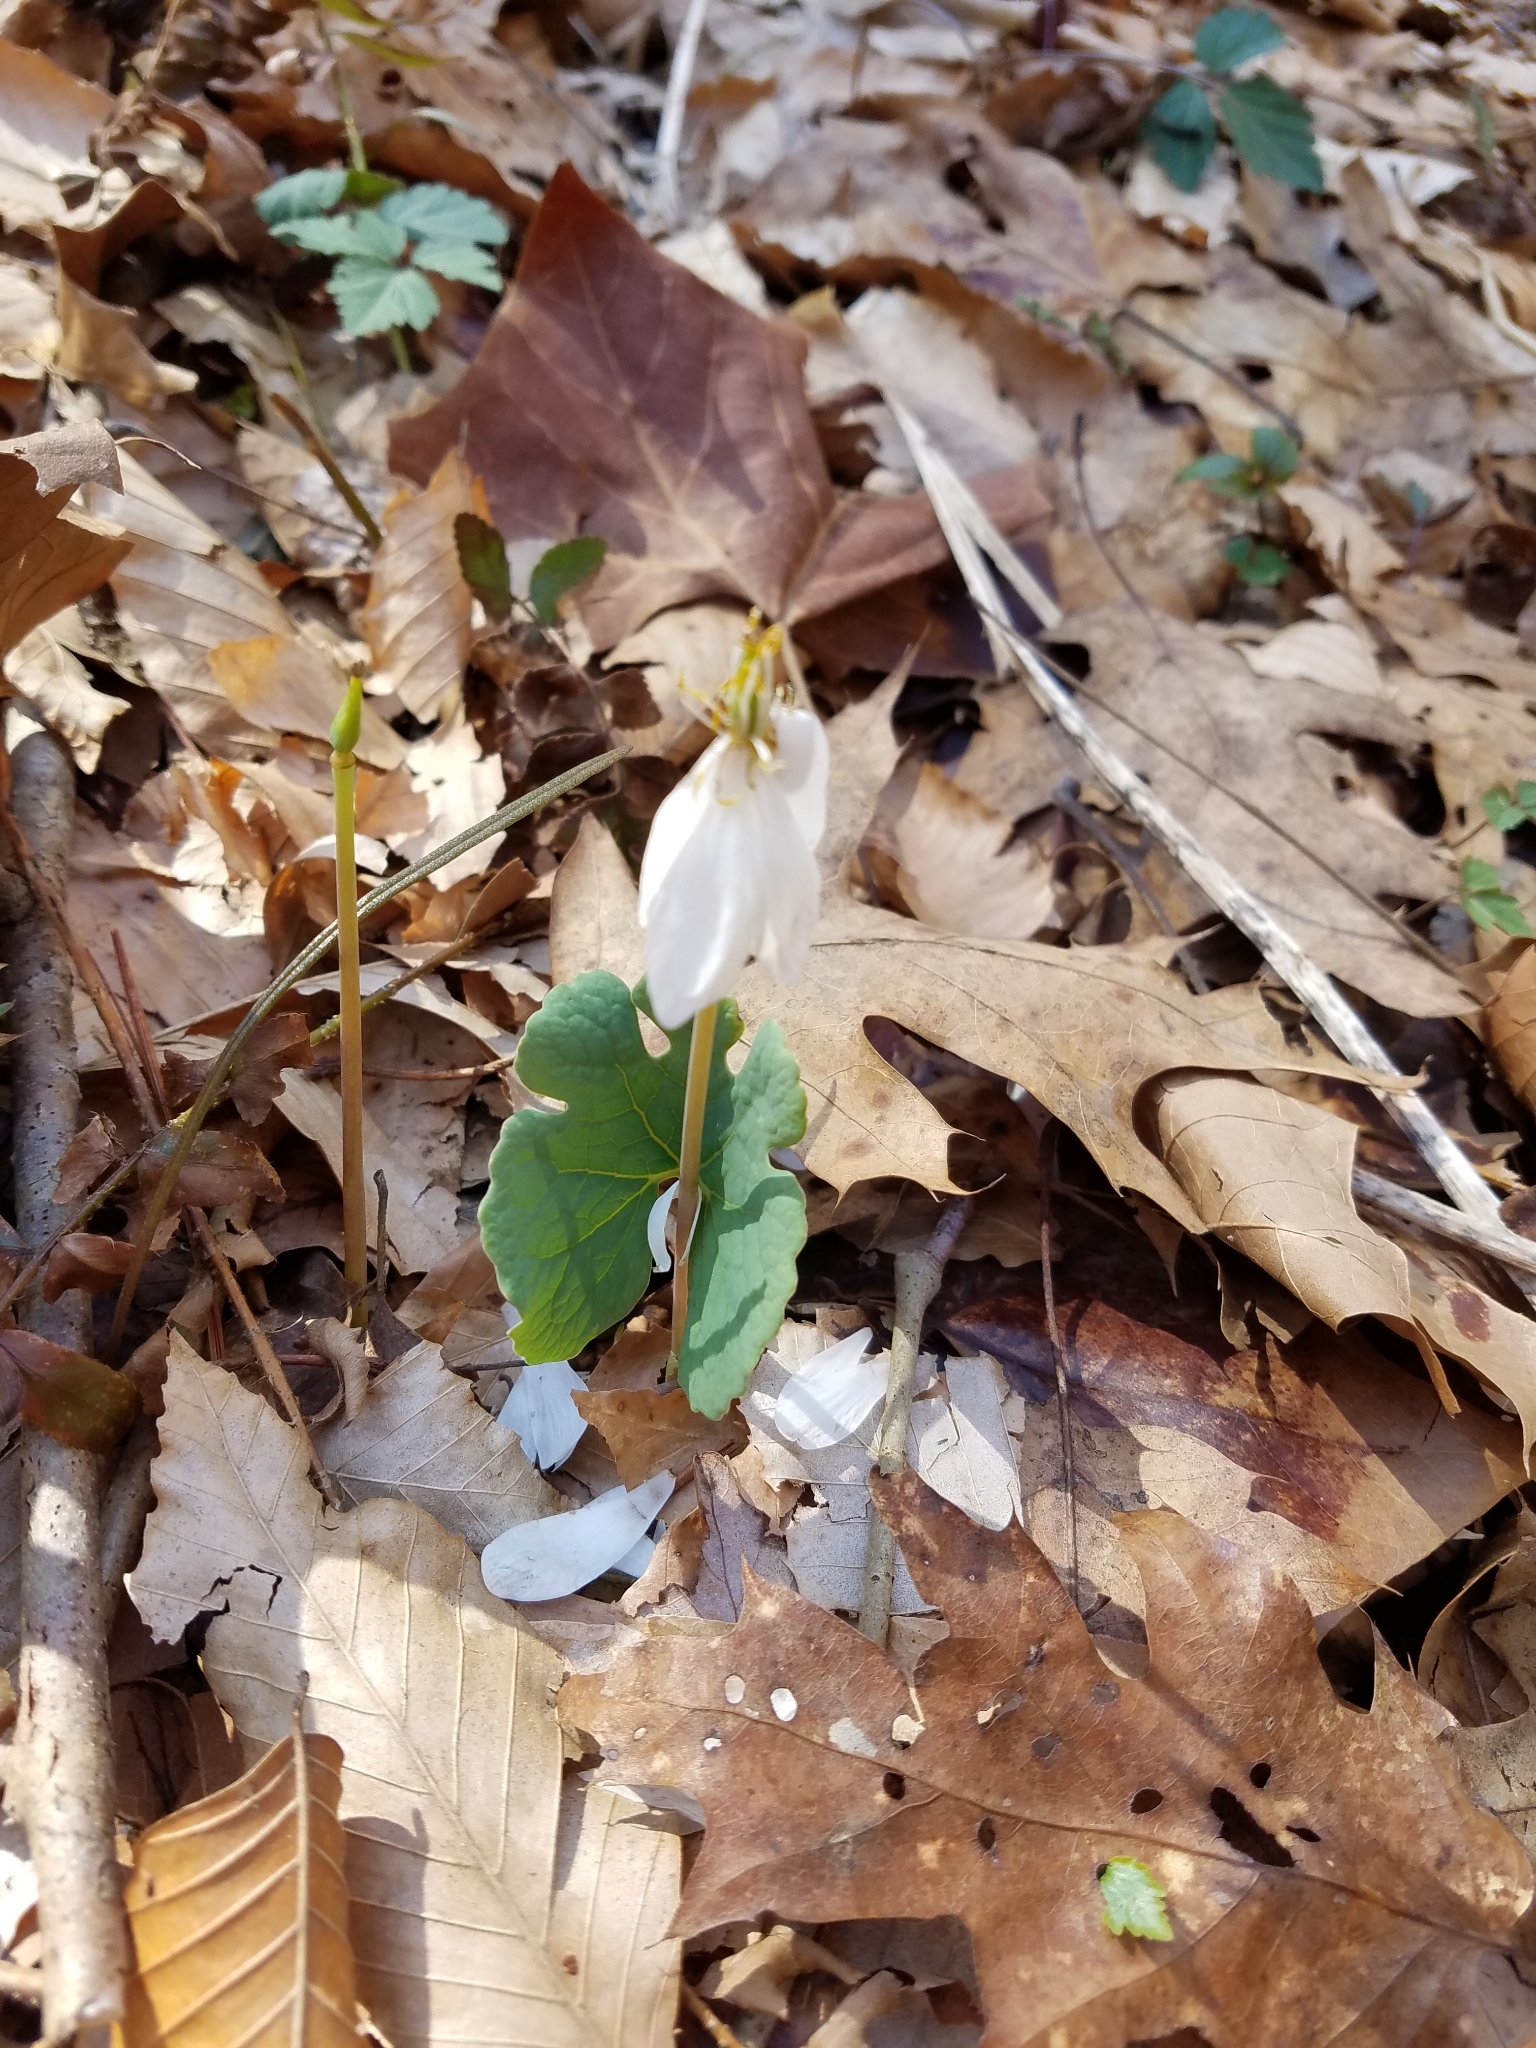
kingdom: Plantae
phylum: Tracheophyta
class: Magnoliopsida
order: Ranunculales
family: Papaveraceae
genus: Sanguinaria
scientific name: Sanguinaria canadensis
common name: Bloodroot
